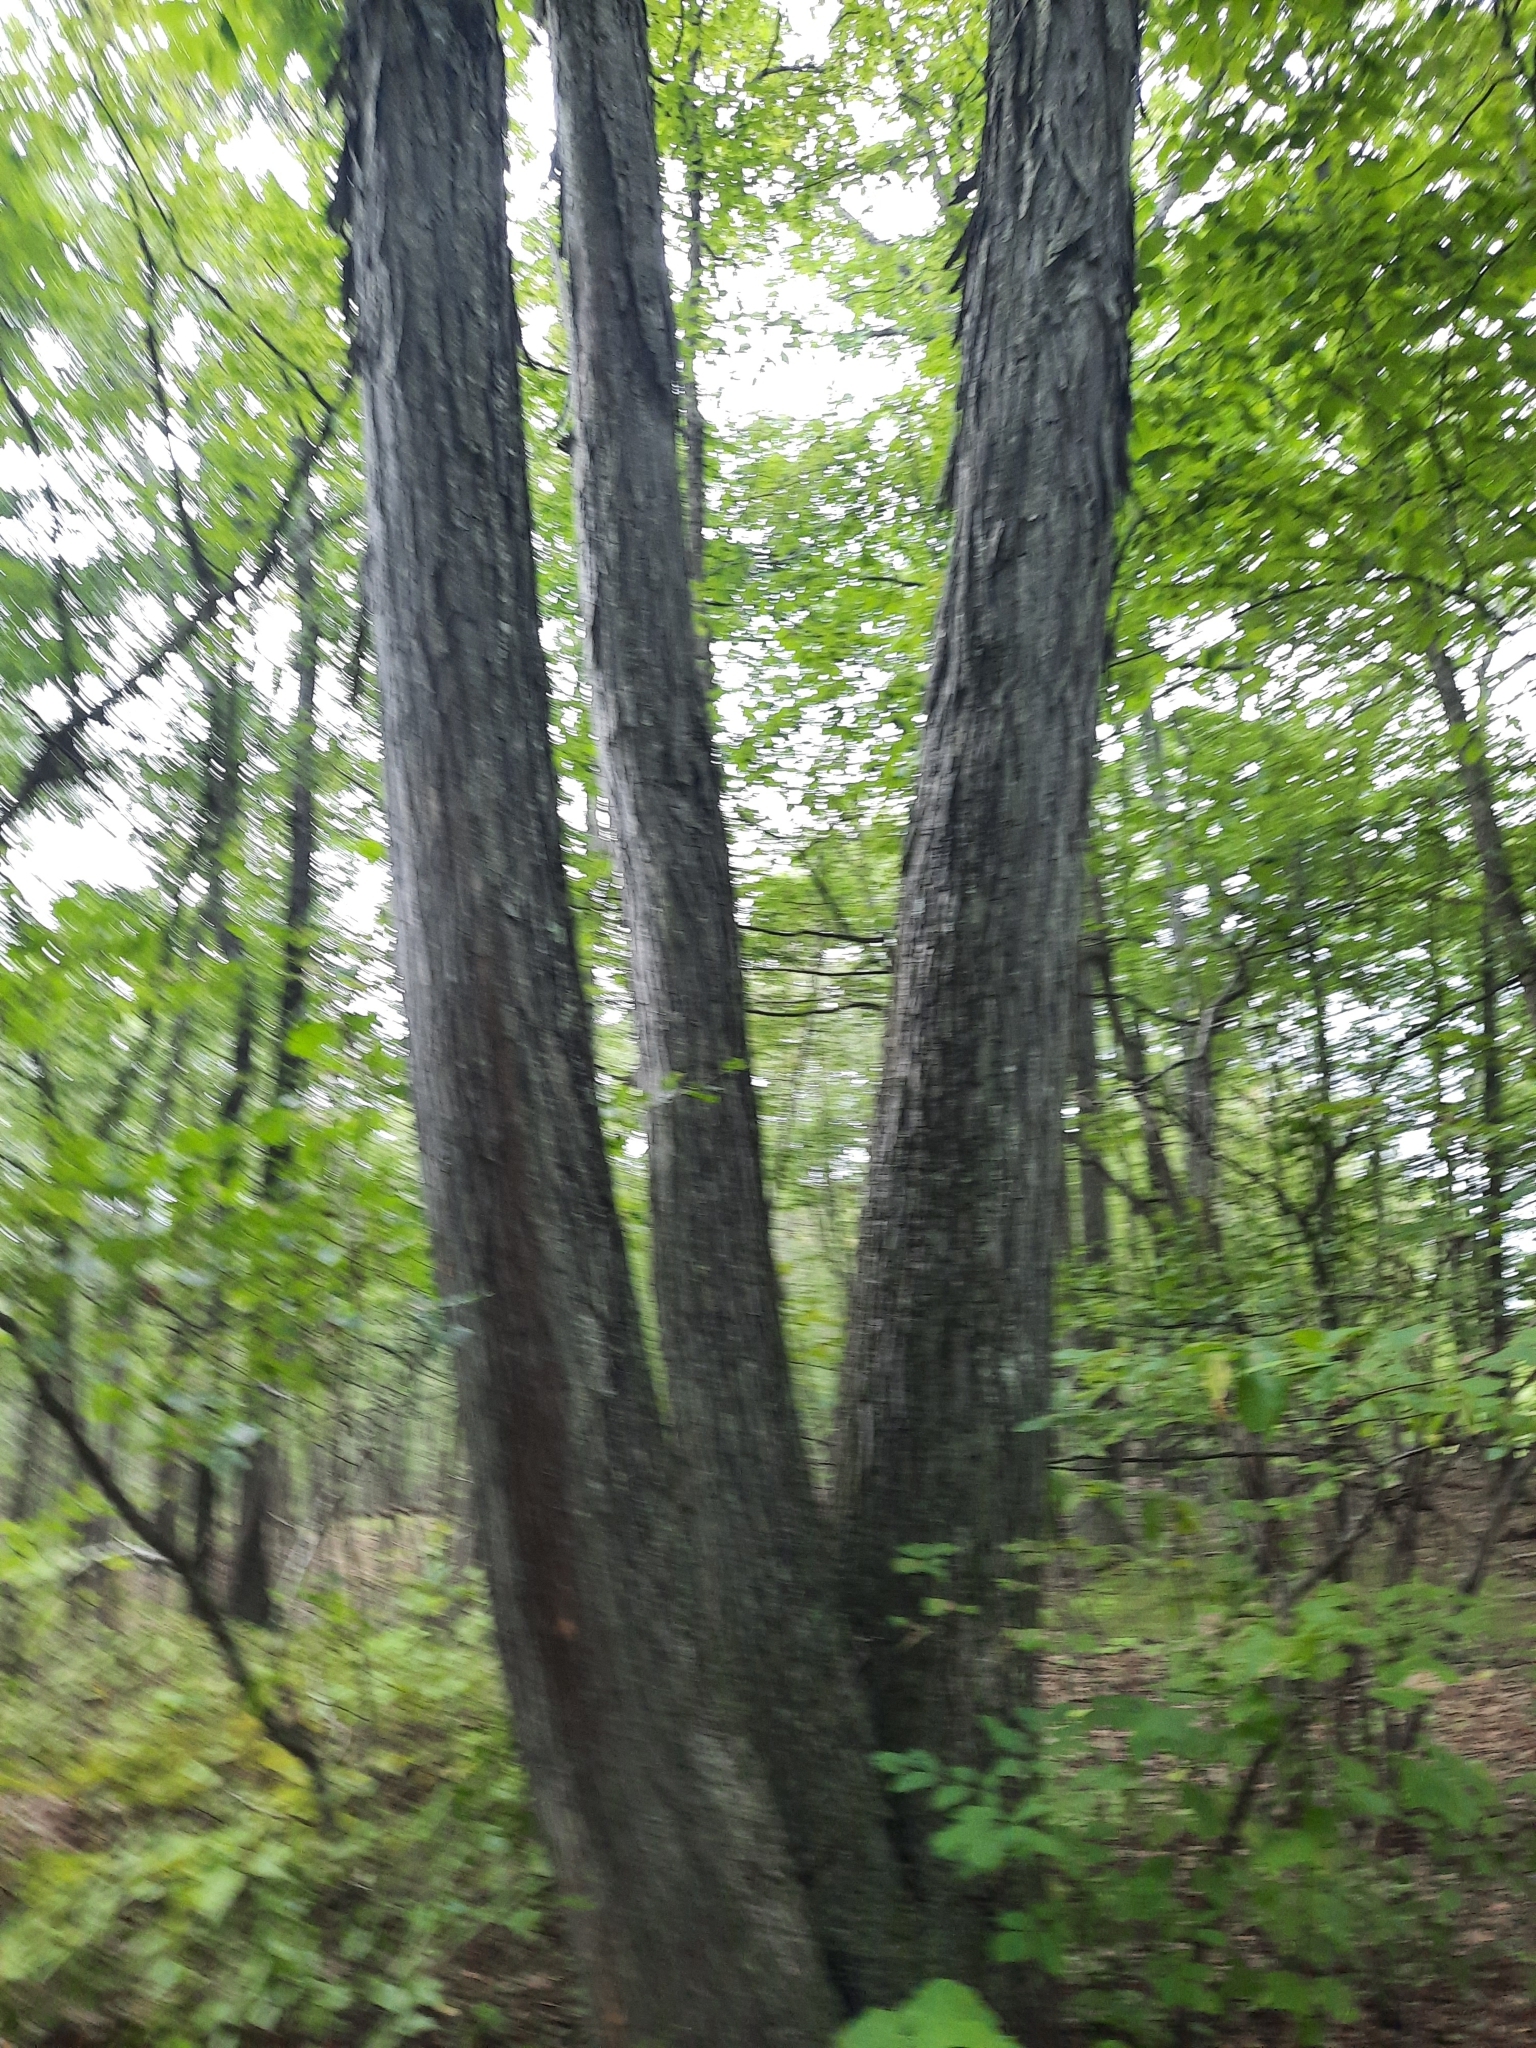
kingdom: Plantae
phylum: Tracheophyta
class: Magnoliopsida
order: Fagales
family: Juglandaceae
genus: Carya
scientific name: Carya ovata
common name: Shagbark hickory
